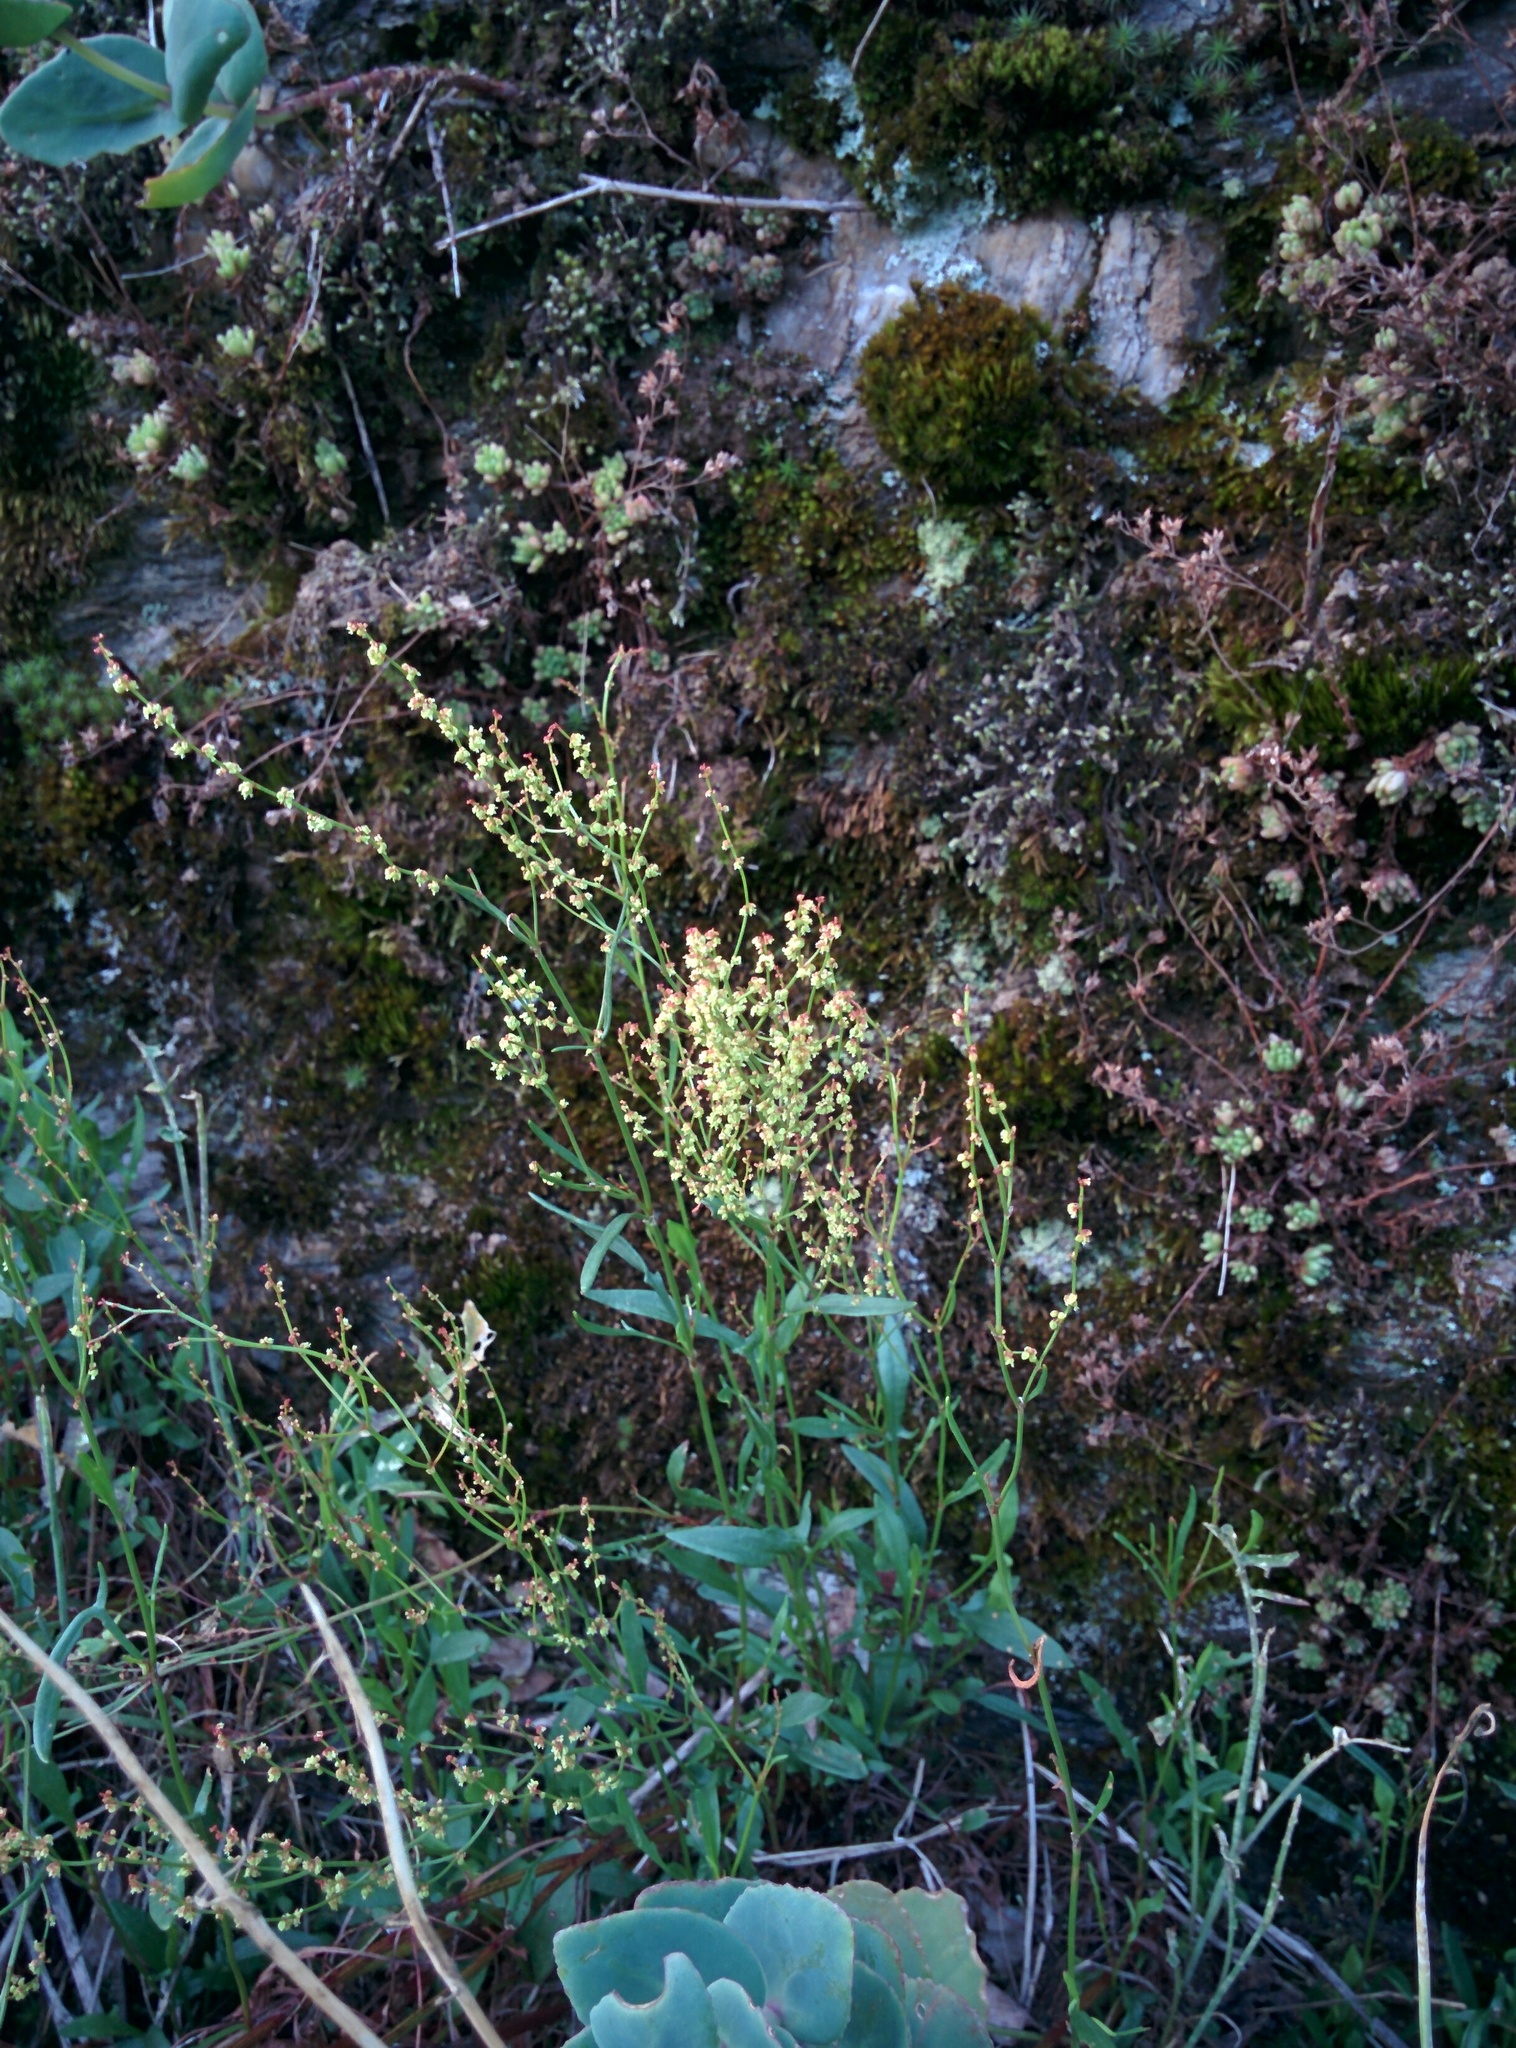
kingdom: Plantae
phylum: Tracheophyta
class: Magnoliopsida
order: Caryophyllales
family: Polygonaceae
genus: Rumex
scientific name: Rumex acetosella
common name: Common sheep sorrel
